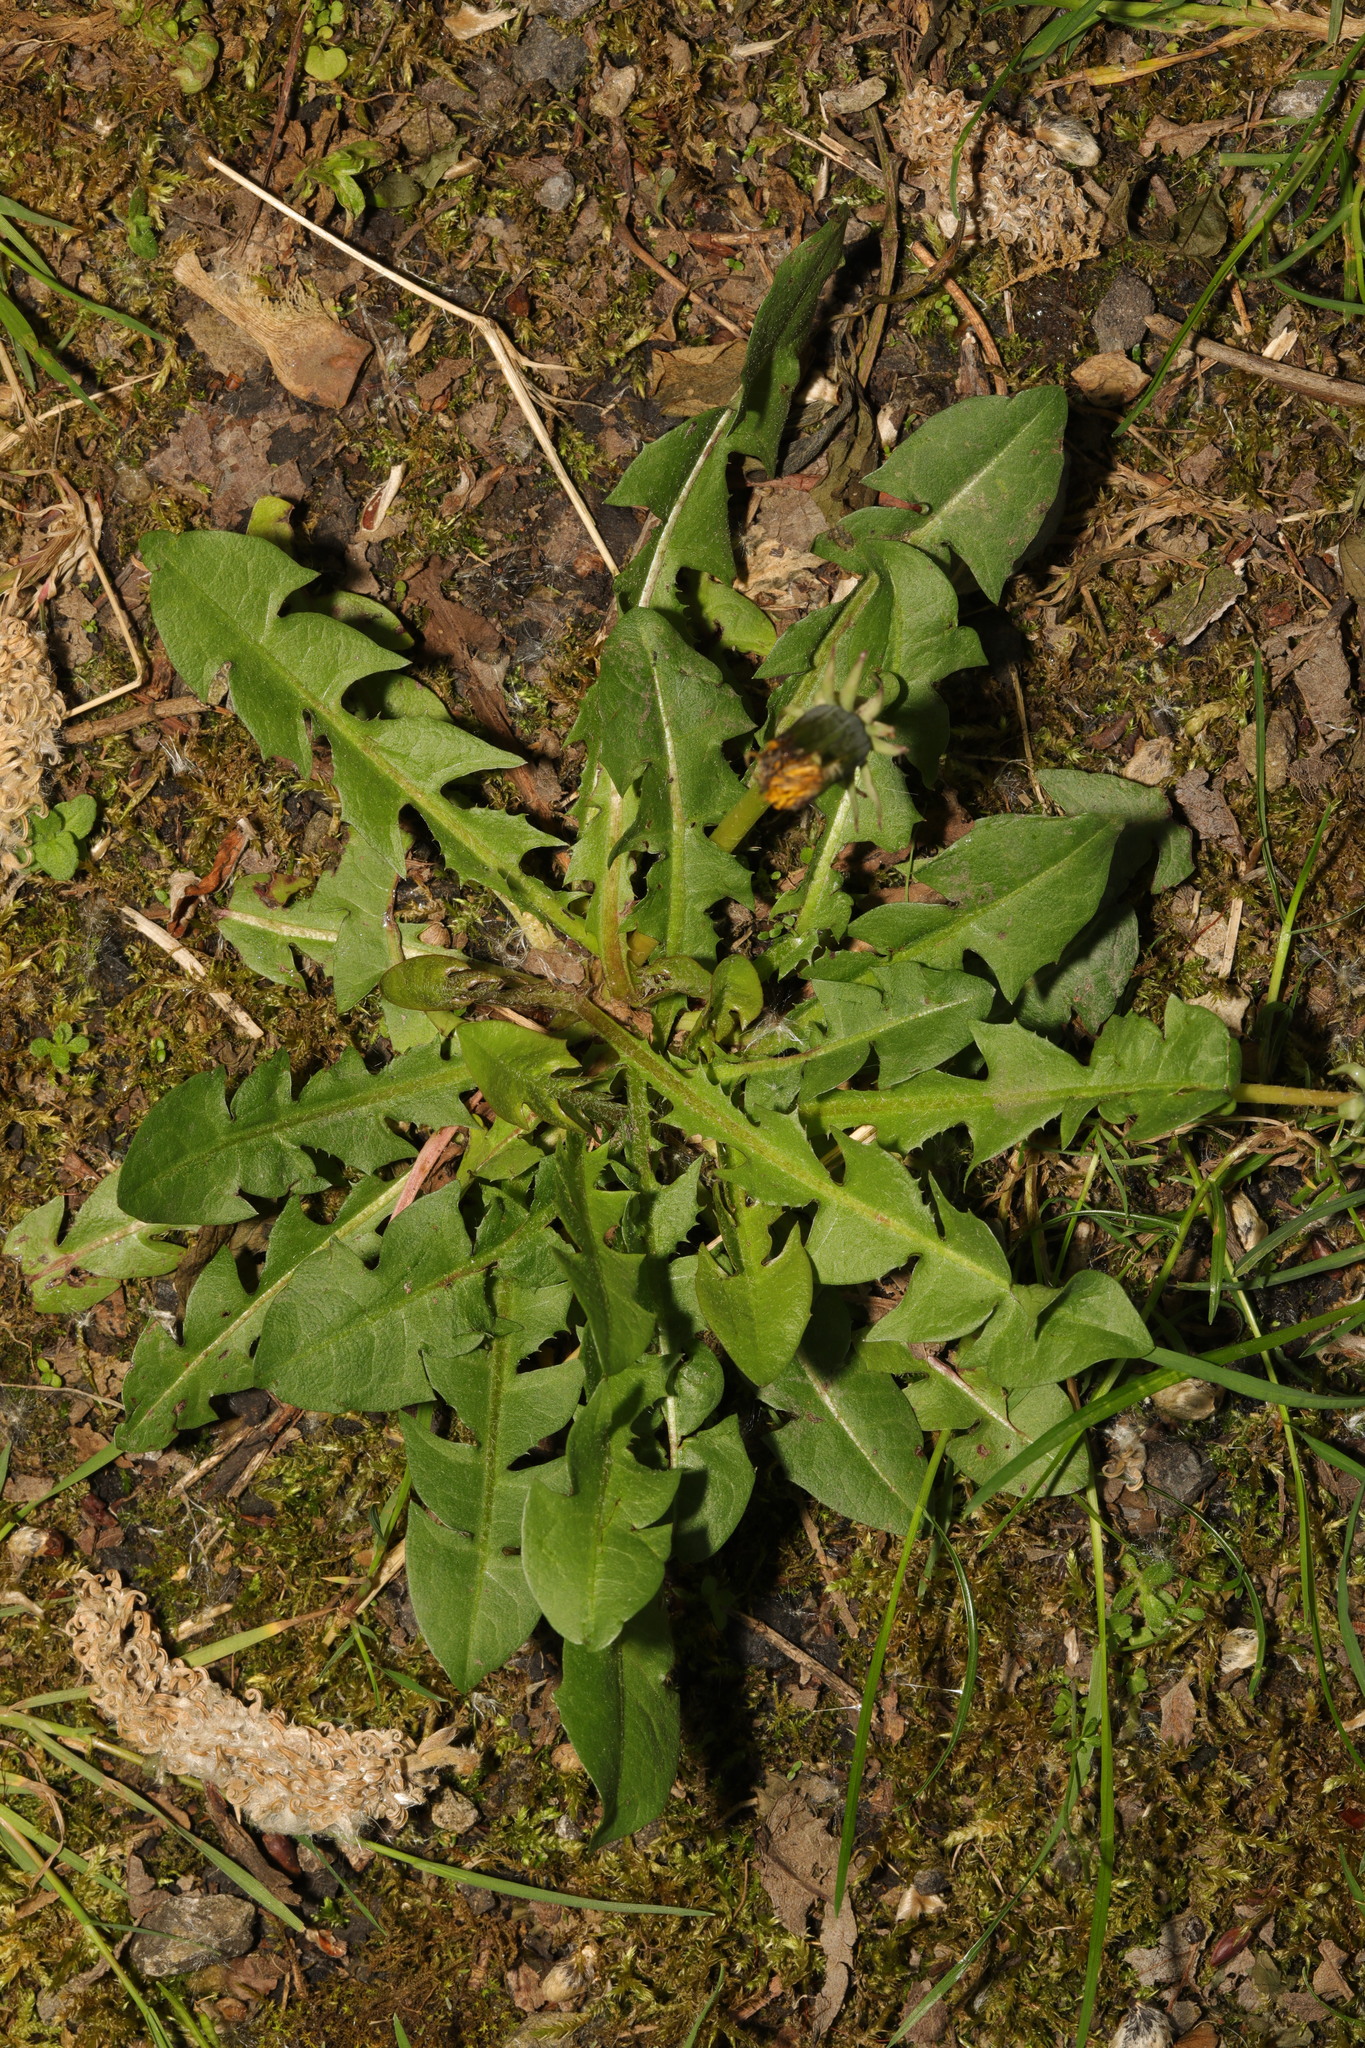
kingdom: Plantae
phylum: Tracheophyta
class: Magnoliopsida
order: Asterales
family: Asteraceae
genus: Taraxacum
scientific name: Taraxacum officinale
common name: Common dandelion
